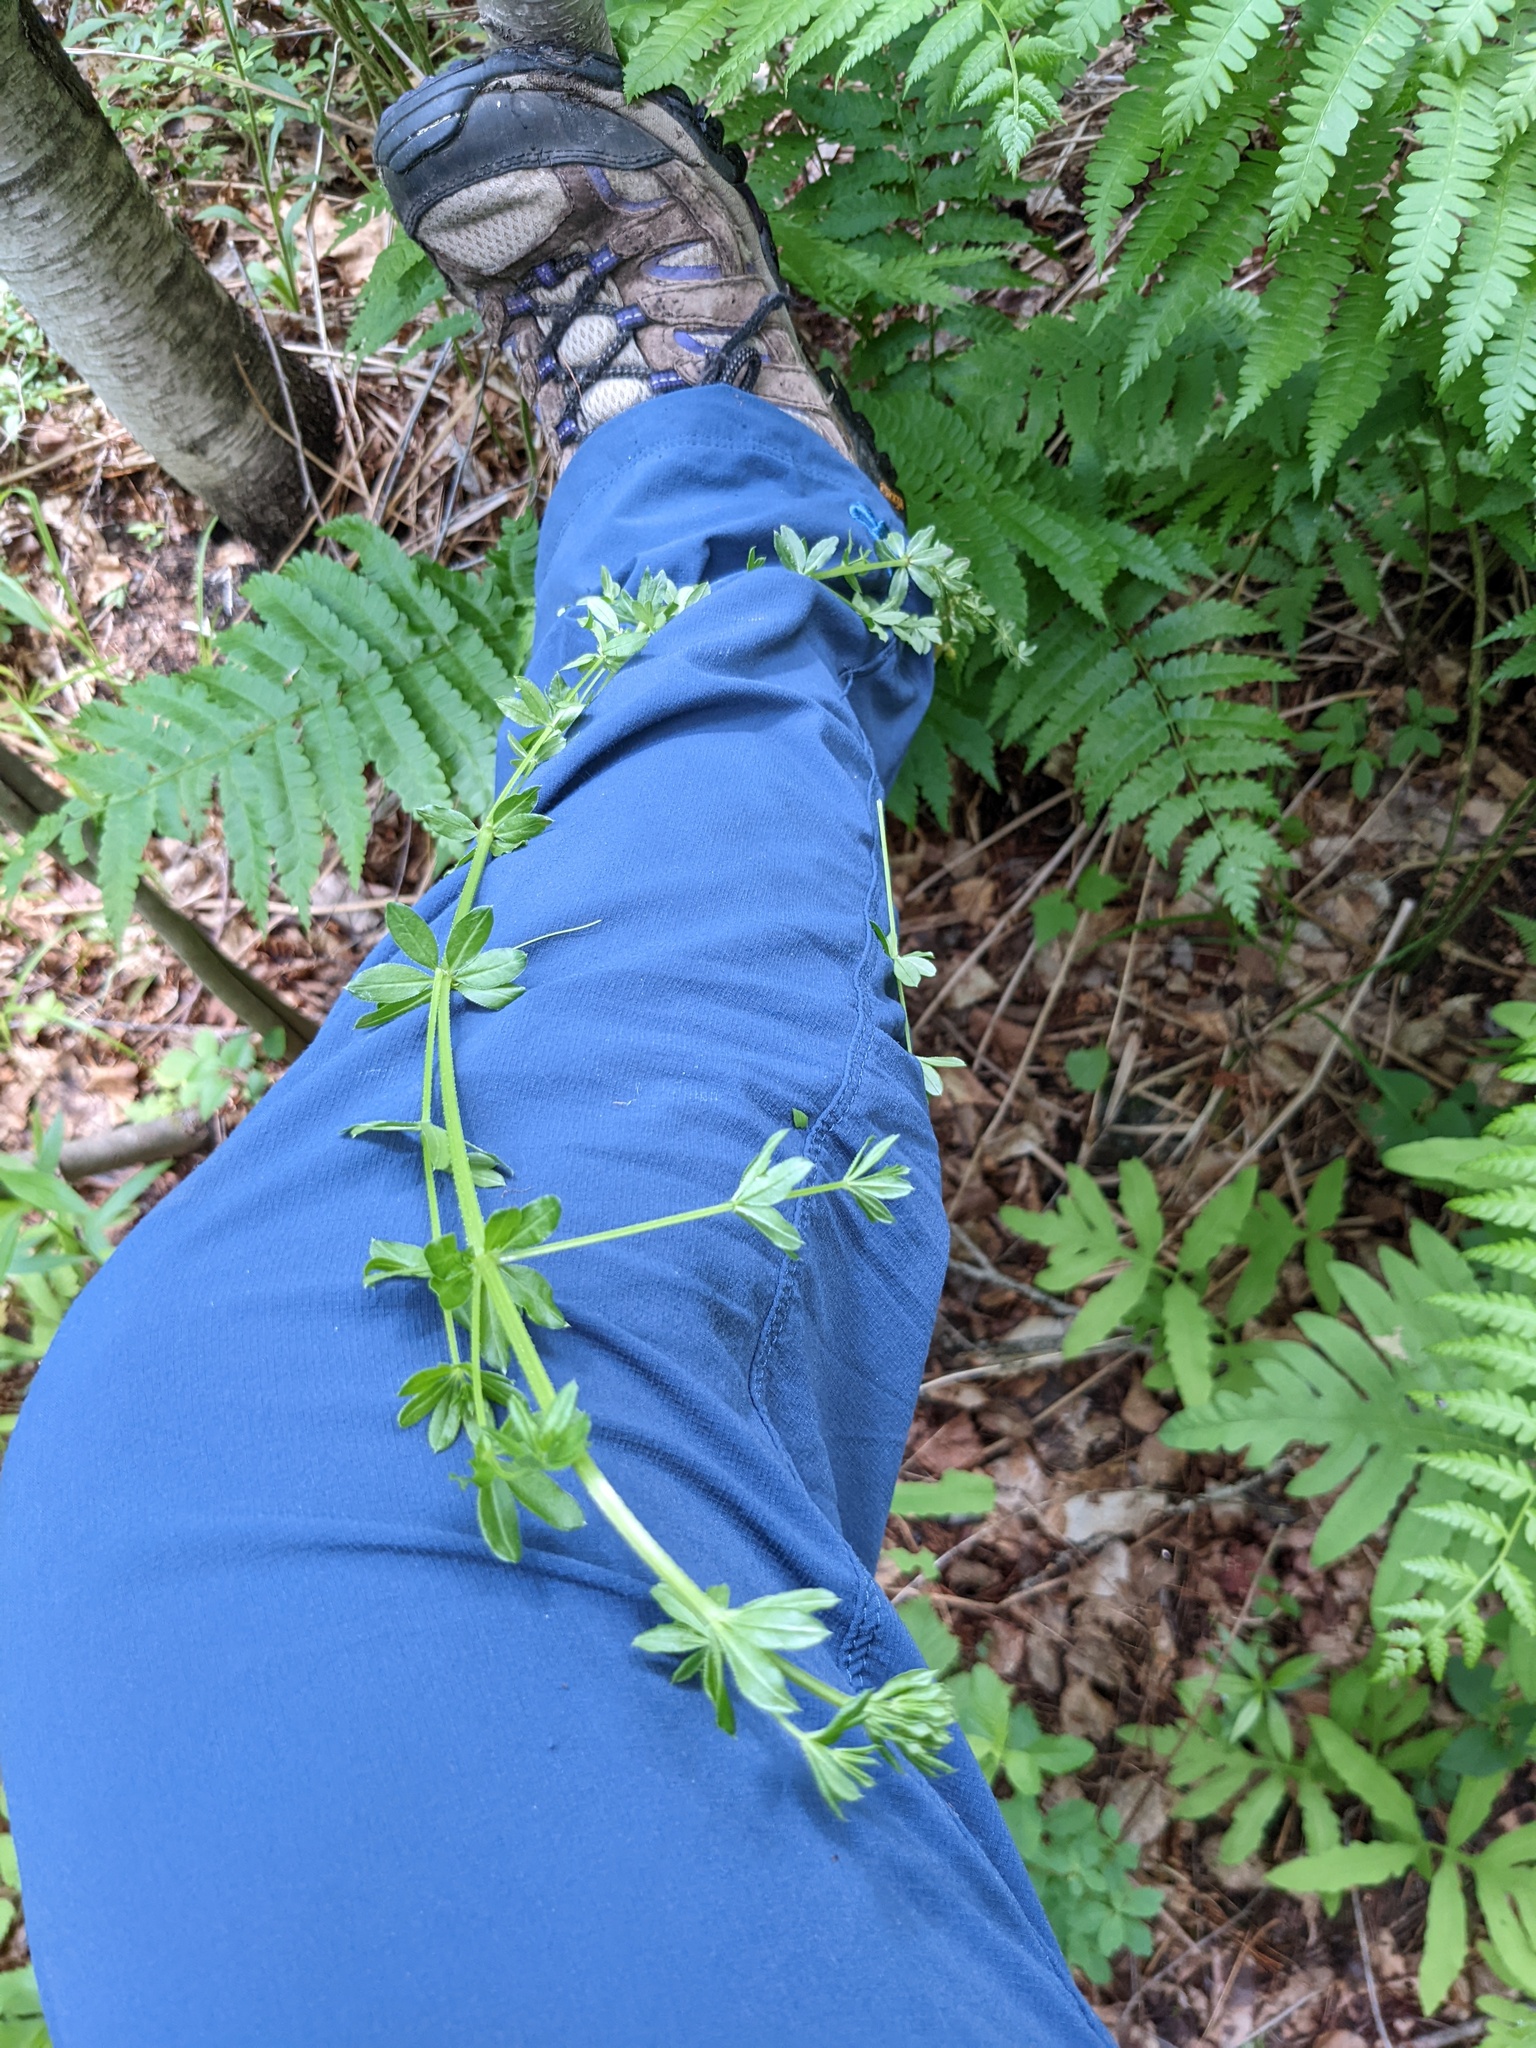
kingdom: Plantae
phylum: Tracheophyta
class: Magnoliopsida
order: Gentianales
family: Rubiaceae
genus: Galium
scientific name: Galium asprellum
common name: Rough bedstraw
